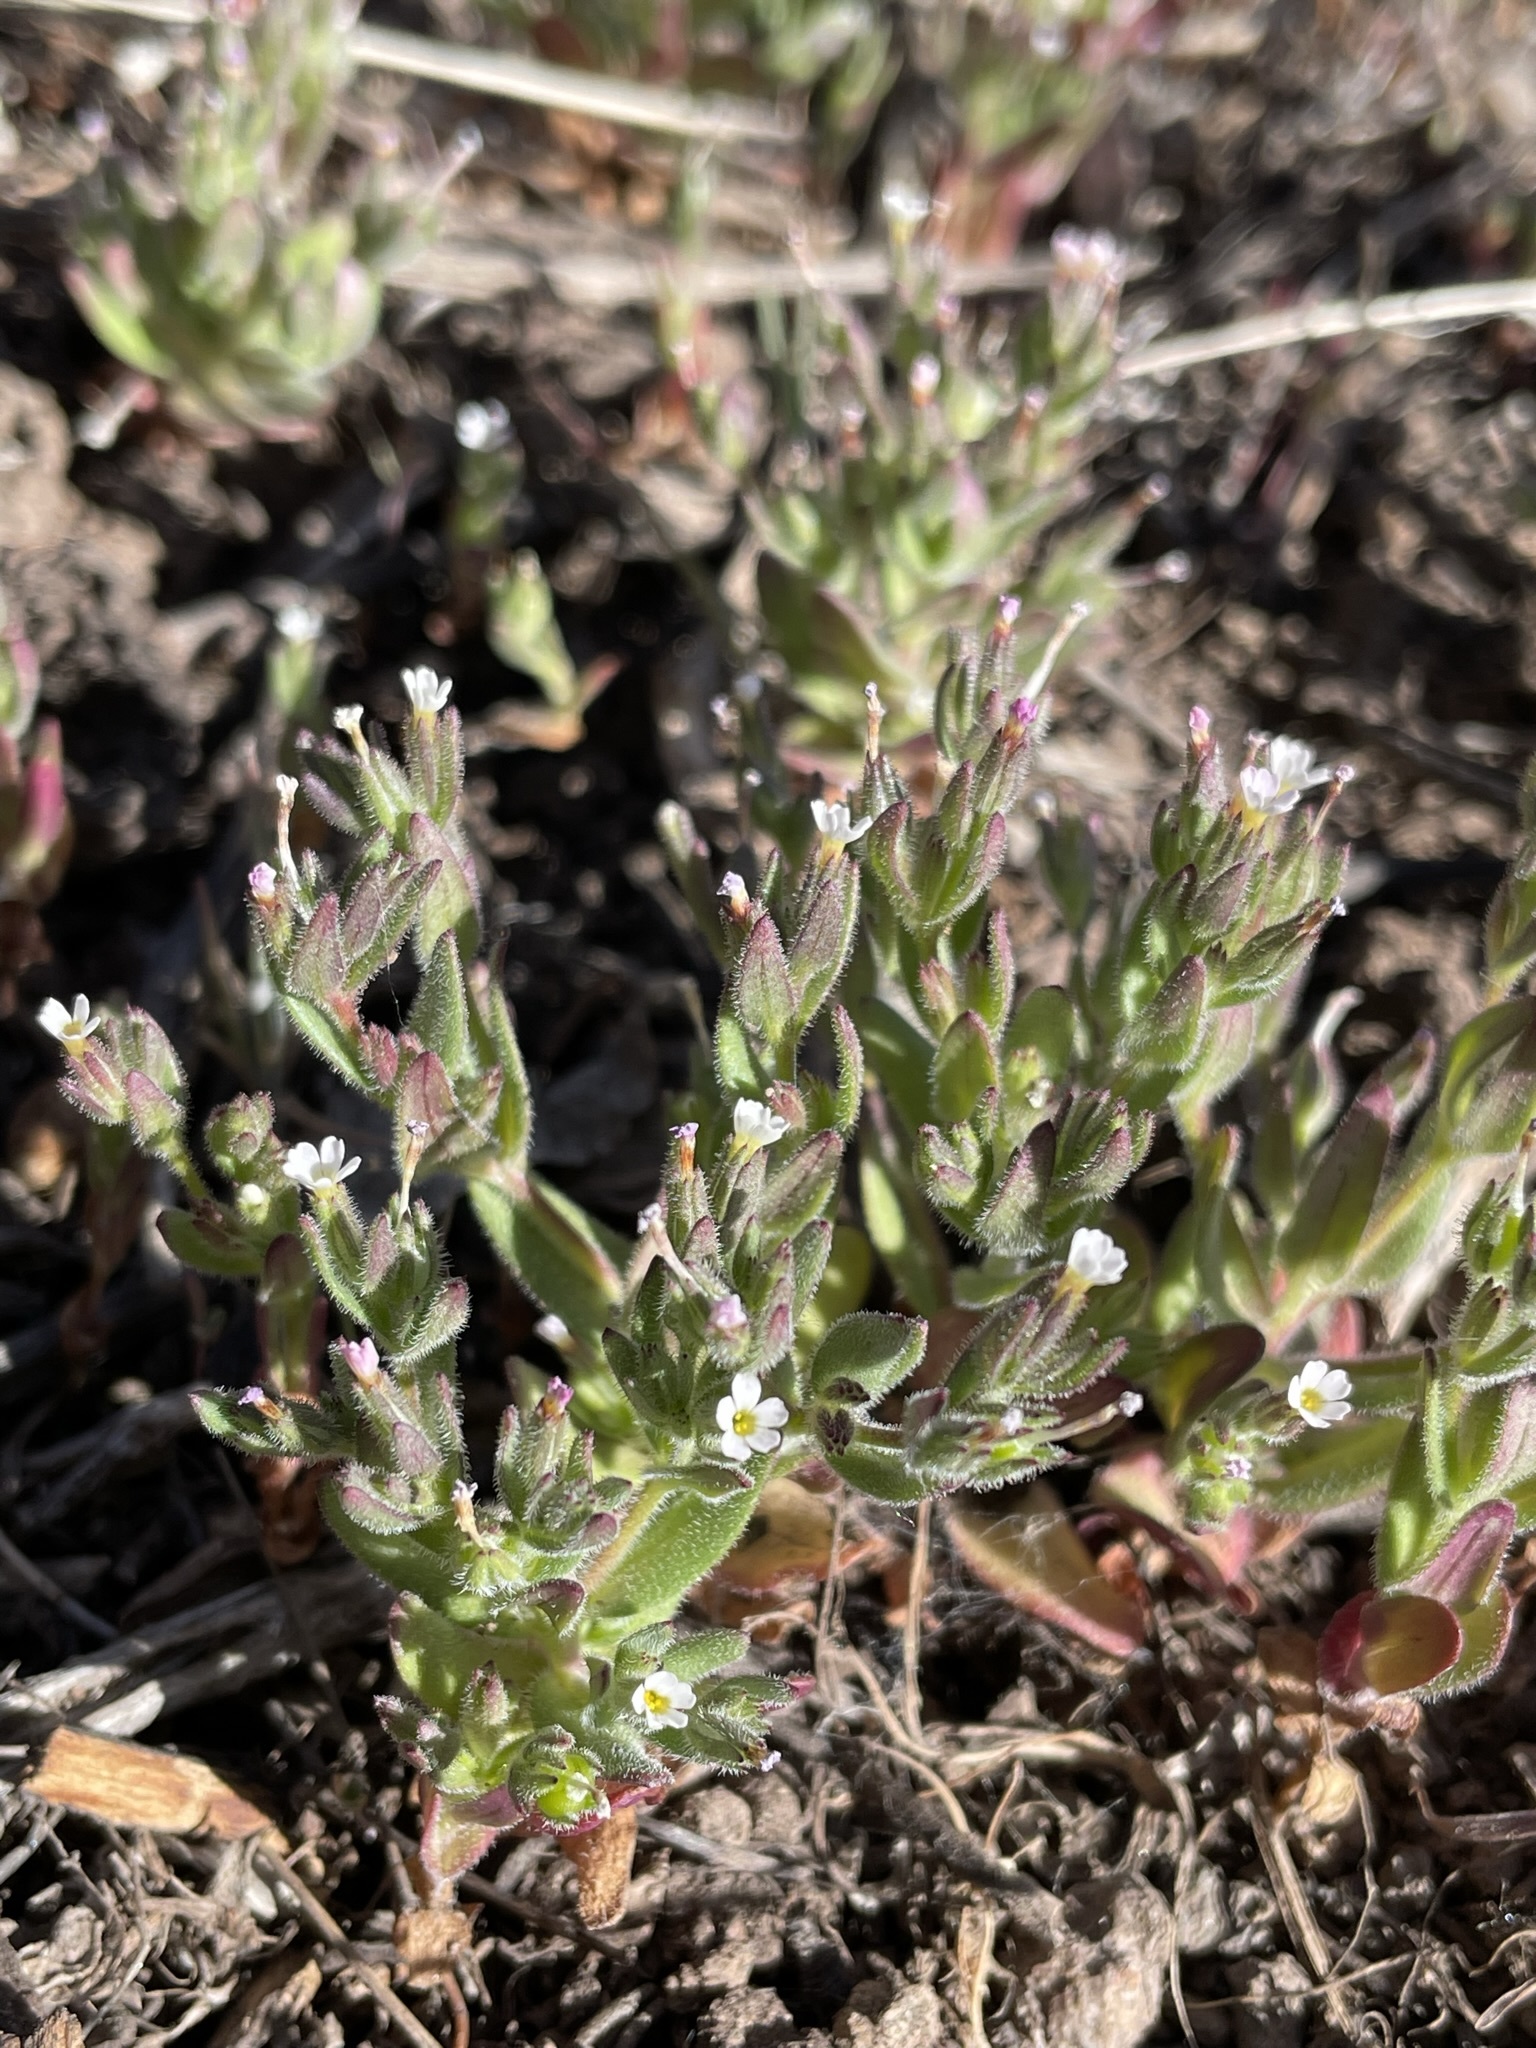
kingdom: Plantae
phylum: Tracheophyta
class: Magnoliopsida
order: Ericales
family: Polemoniaceae
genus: Phlox
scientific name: Phlox gracilis
